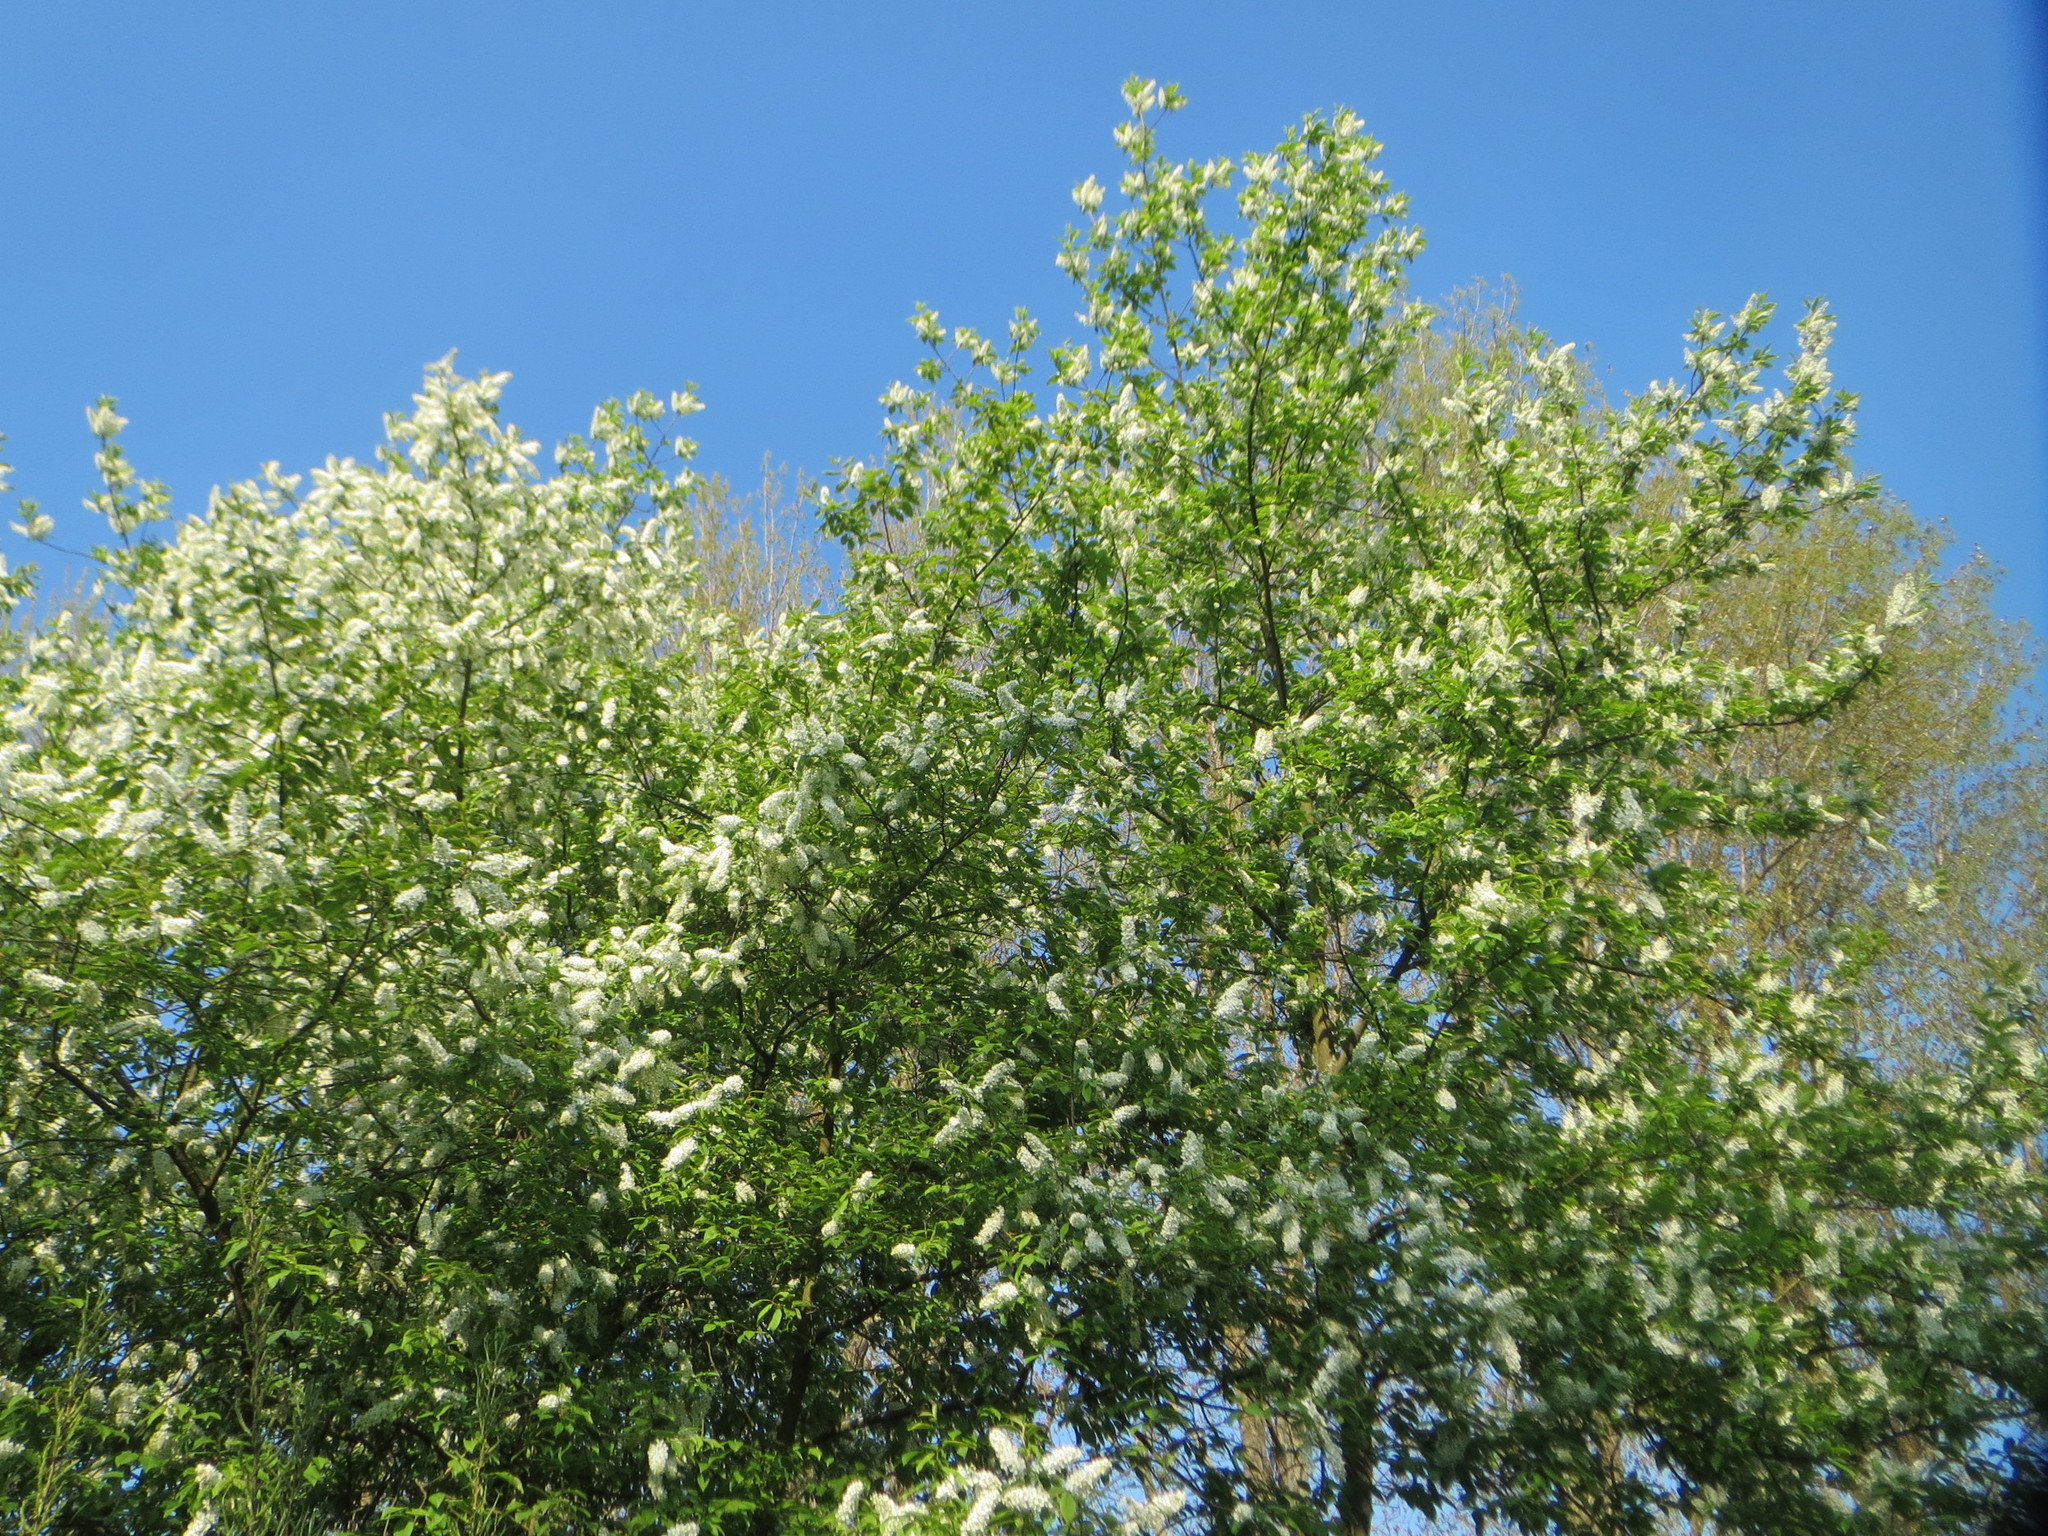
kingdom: Plantae
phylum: Tracheophyta
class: Magnoliopsida
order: Rosales
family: Rosaceae
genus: Prunus
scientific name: Prunus padus
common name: Bird cherry
